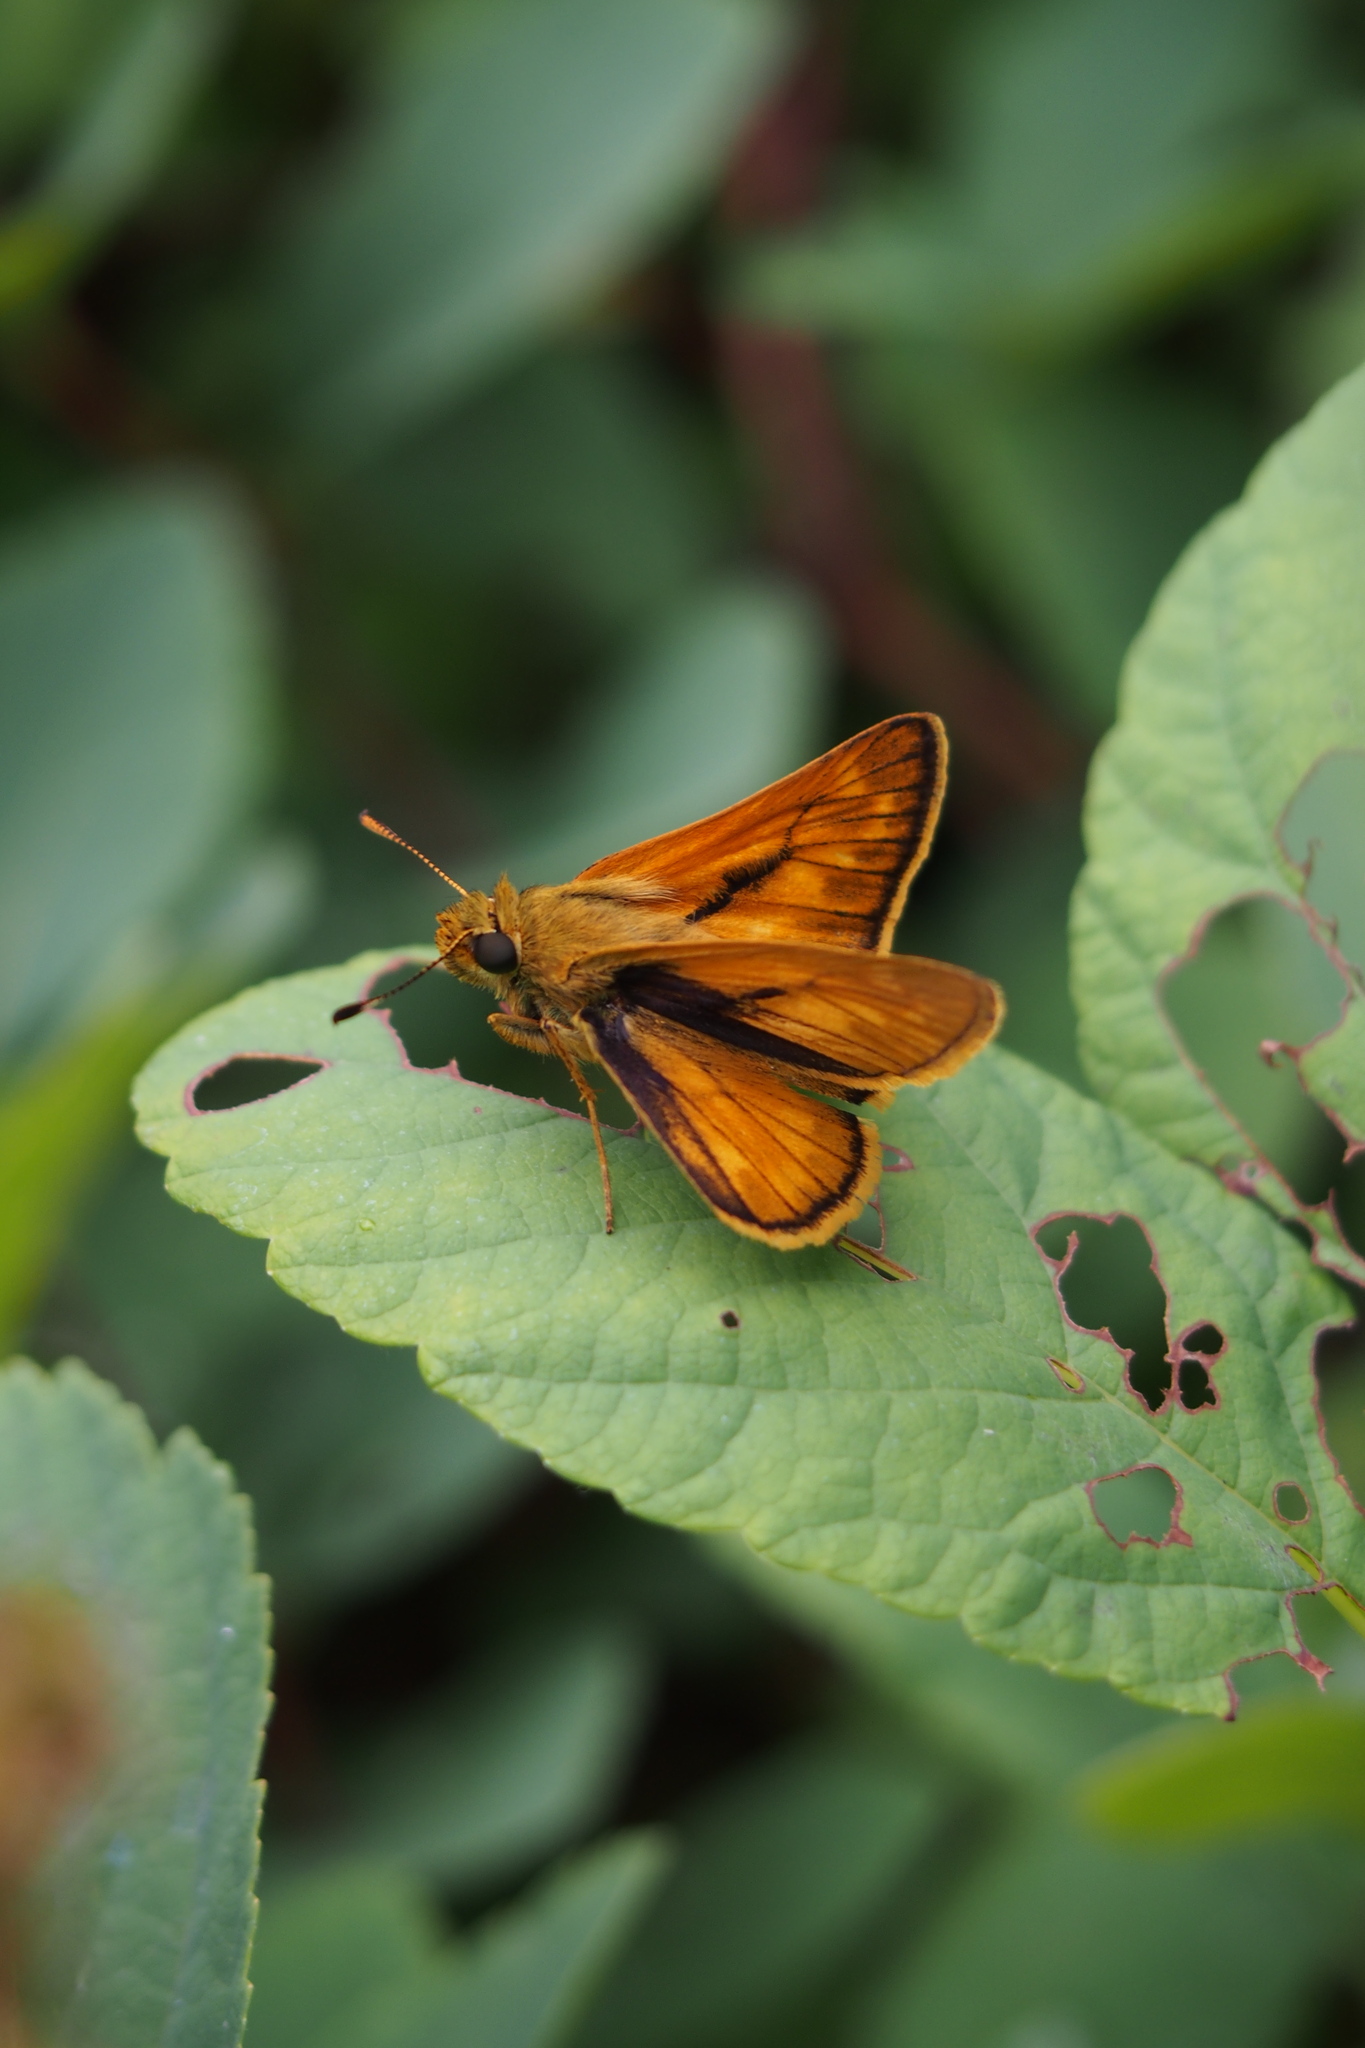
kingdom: Animalia
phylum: Arthropoda
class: Insecta
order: Lepidoptera
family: Hesperiidae
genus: Ochlodes
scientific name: Ochlodes venata
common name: Large skipper
